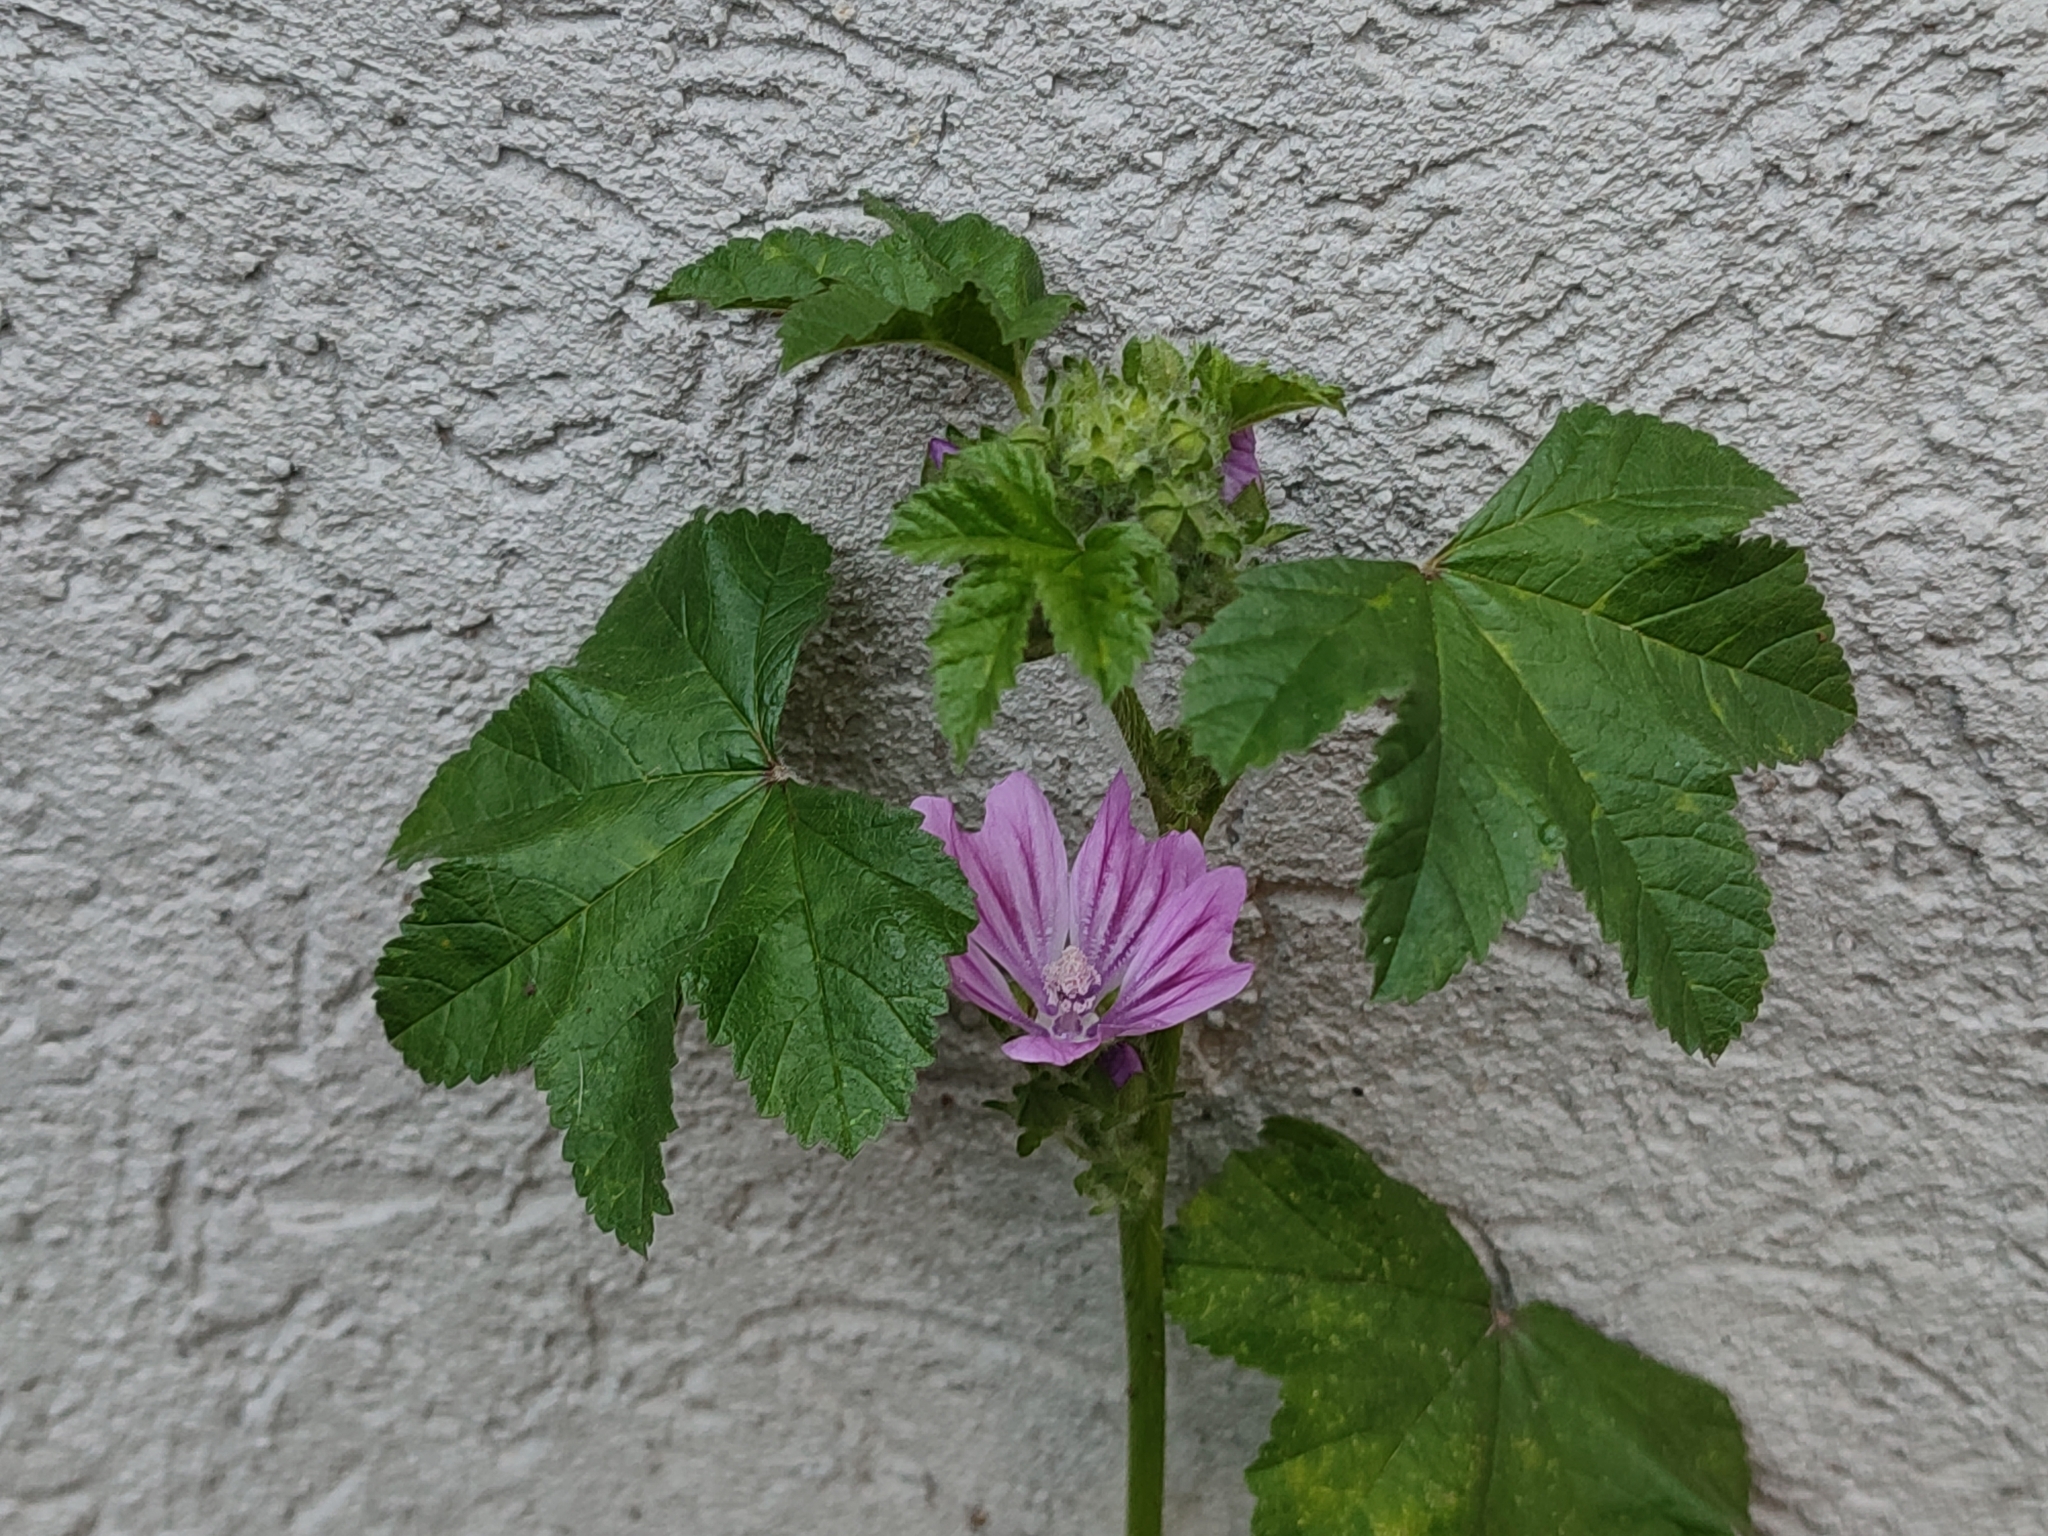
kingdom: Plantae
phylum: Tracheophyta
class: Magnoliopsida
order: Malvales
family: Malvaceae
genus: Malva
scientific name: Malva sylvestris
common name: Common mallow
